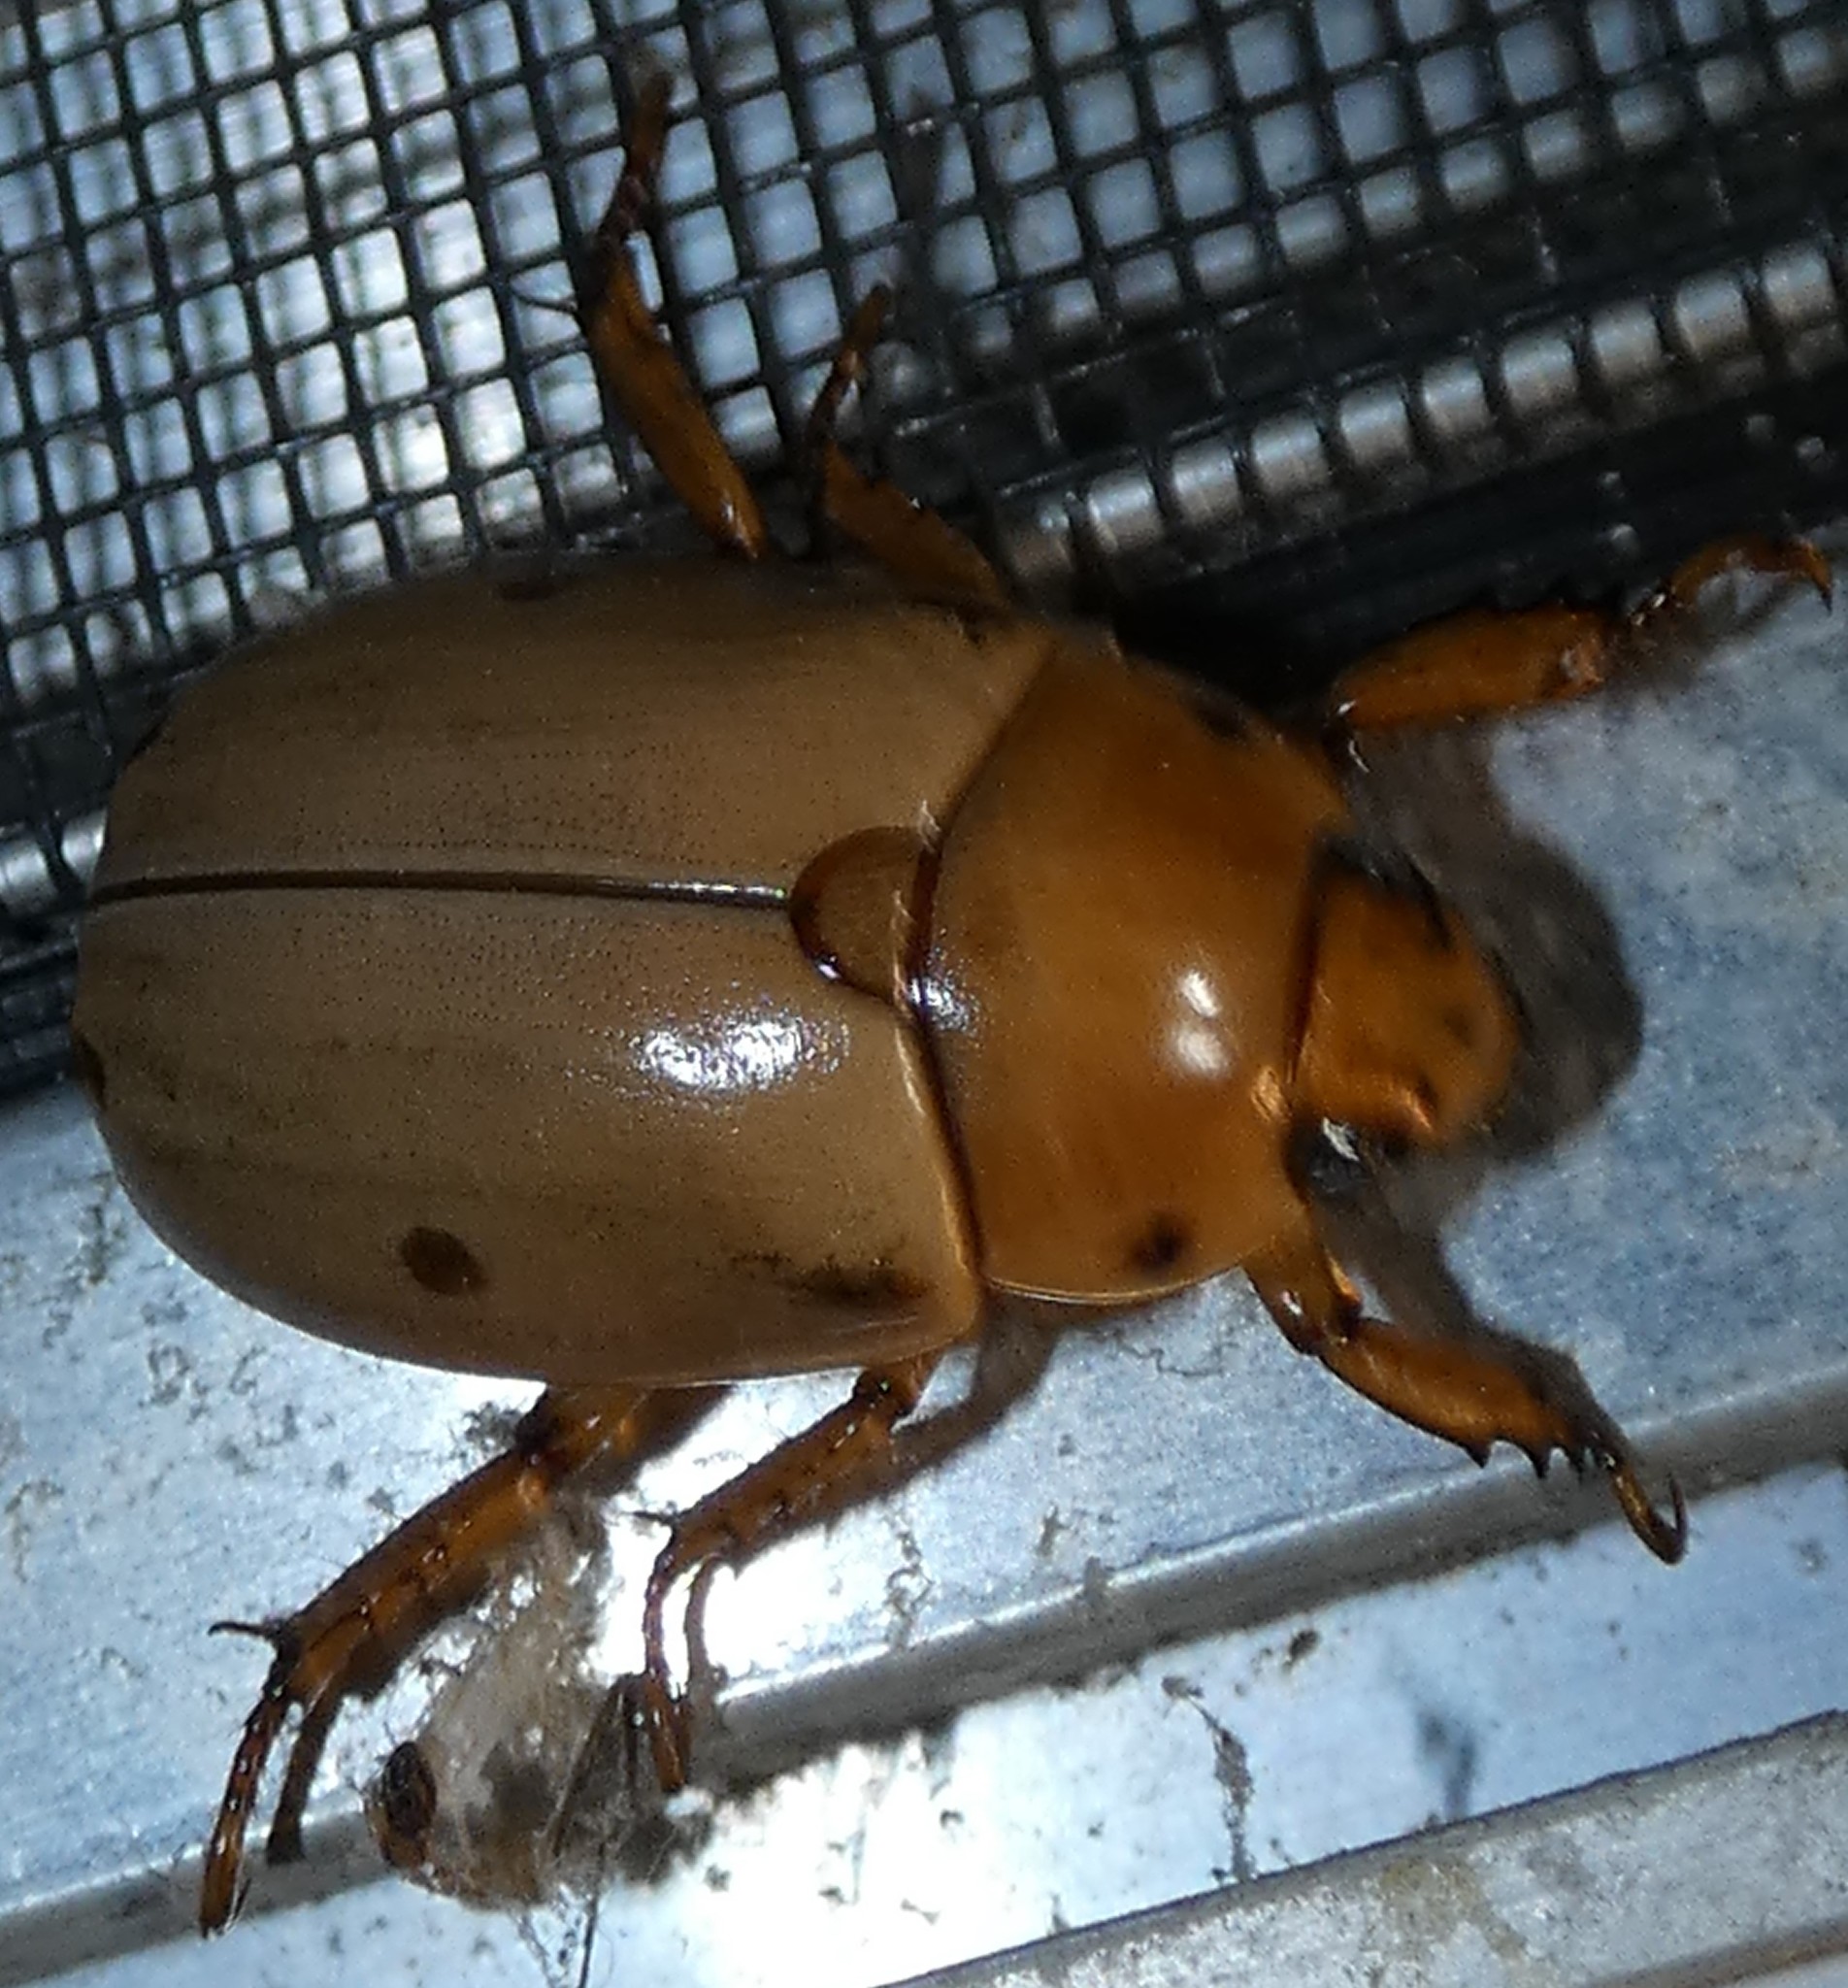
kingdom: Animalia
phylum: Arthropoda
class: Insecta
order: Coleoptera
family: Scarabaeidae
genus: Pelidnota
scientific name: Pelidnota punctata
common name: Grapevine beetle
